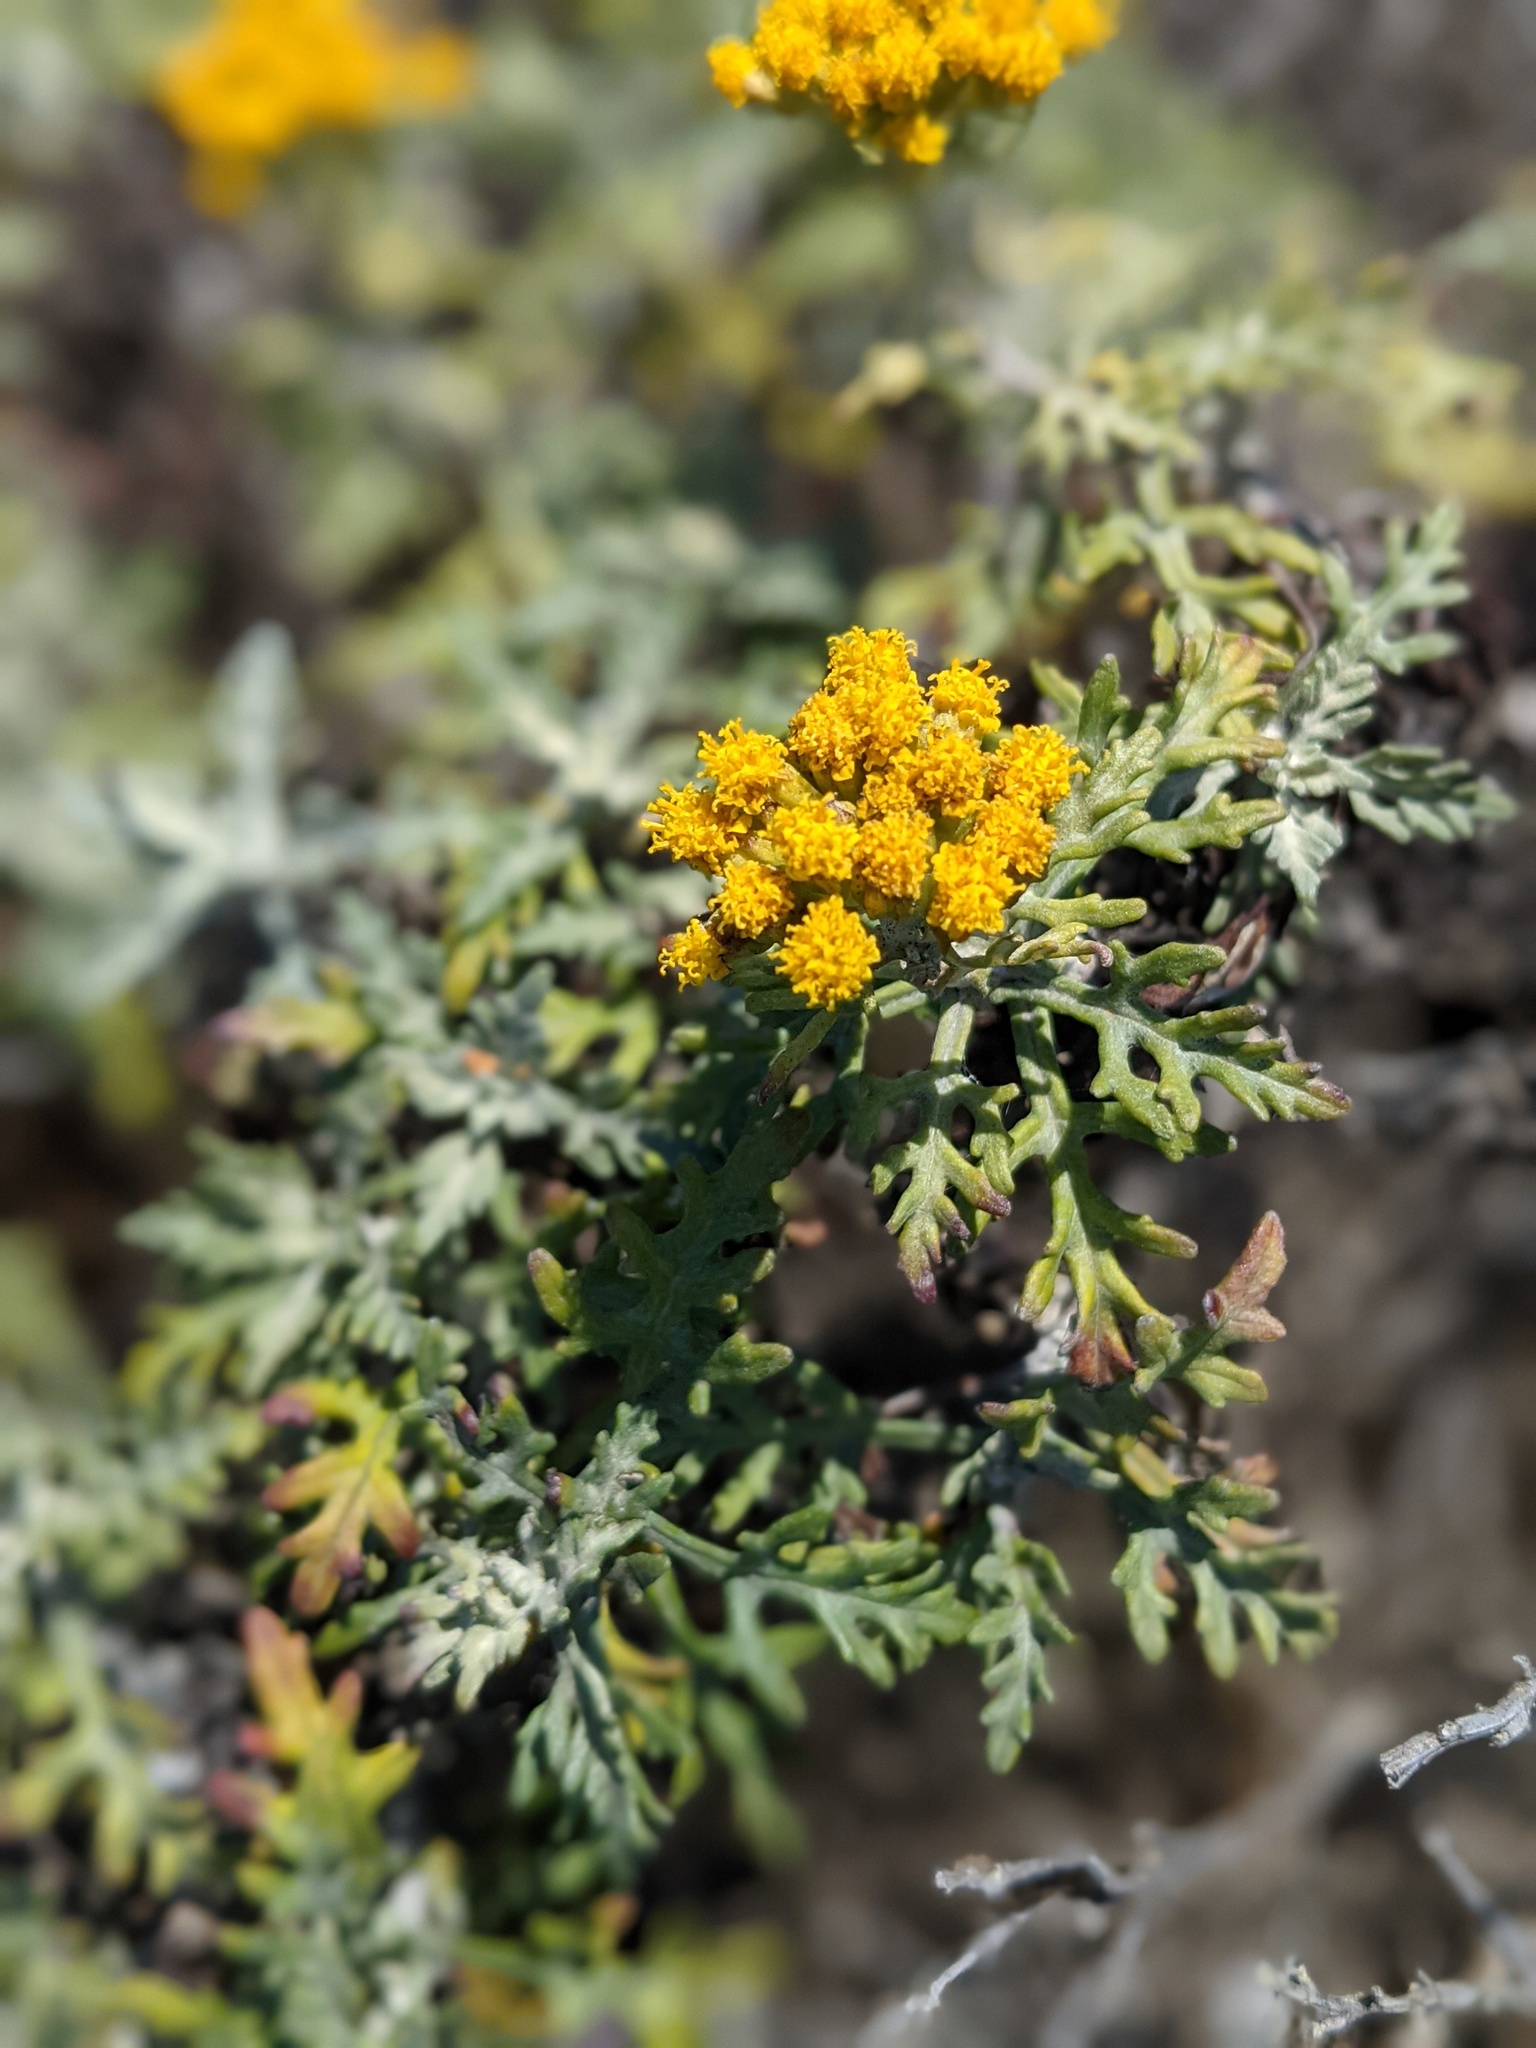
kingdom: Plantae
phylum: Tracheophyta
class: Magnoliopsida
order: Asterales
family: Asteraceae
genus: Eriophyllum
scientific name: Eriophyllum staechadifolium
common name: Lizardtail
